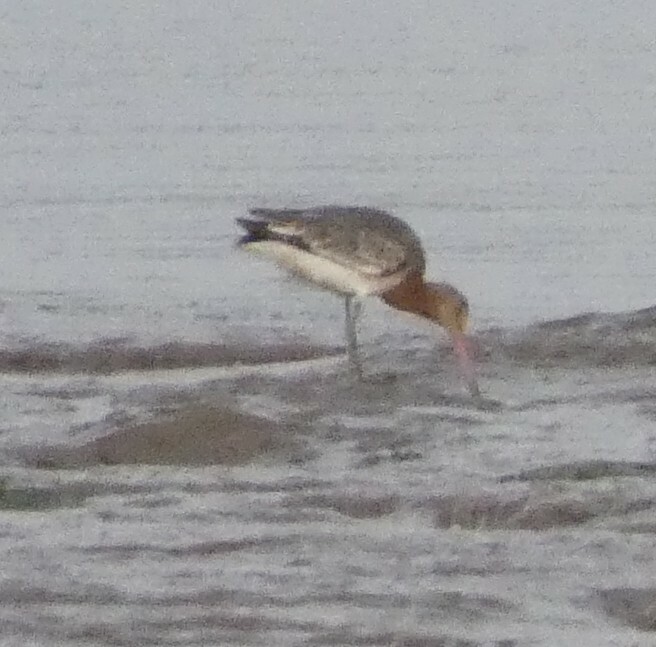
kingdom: Animalia
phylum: Chordata
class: Aves
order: Charadriiformes
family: Scolopacidae
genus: Limosa
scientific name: Limosa limosa
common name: Black-tailed godwit
